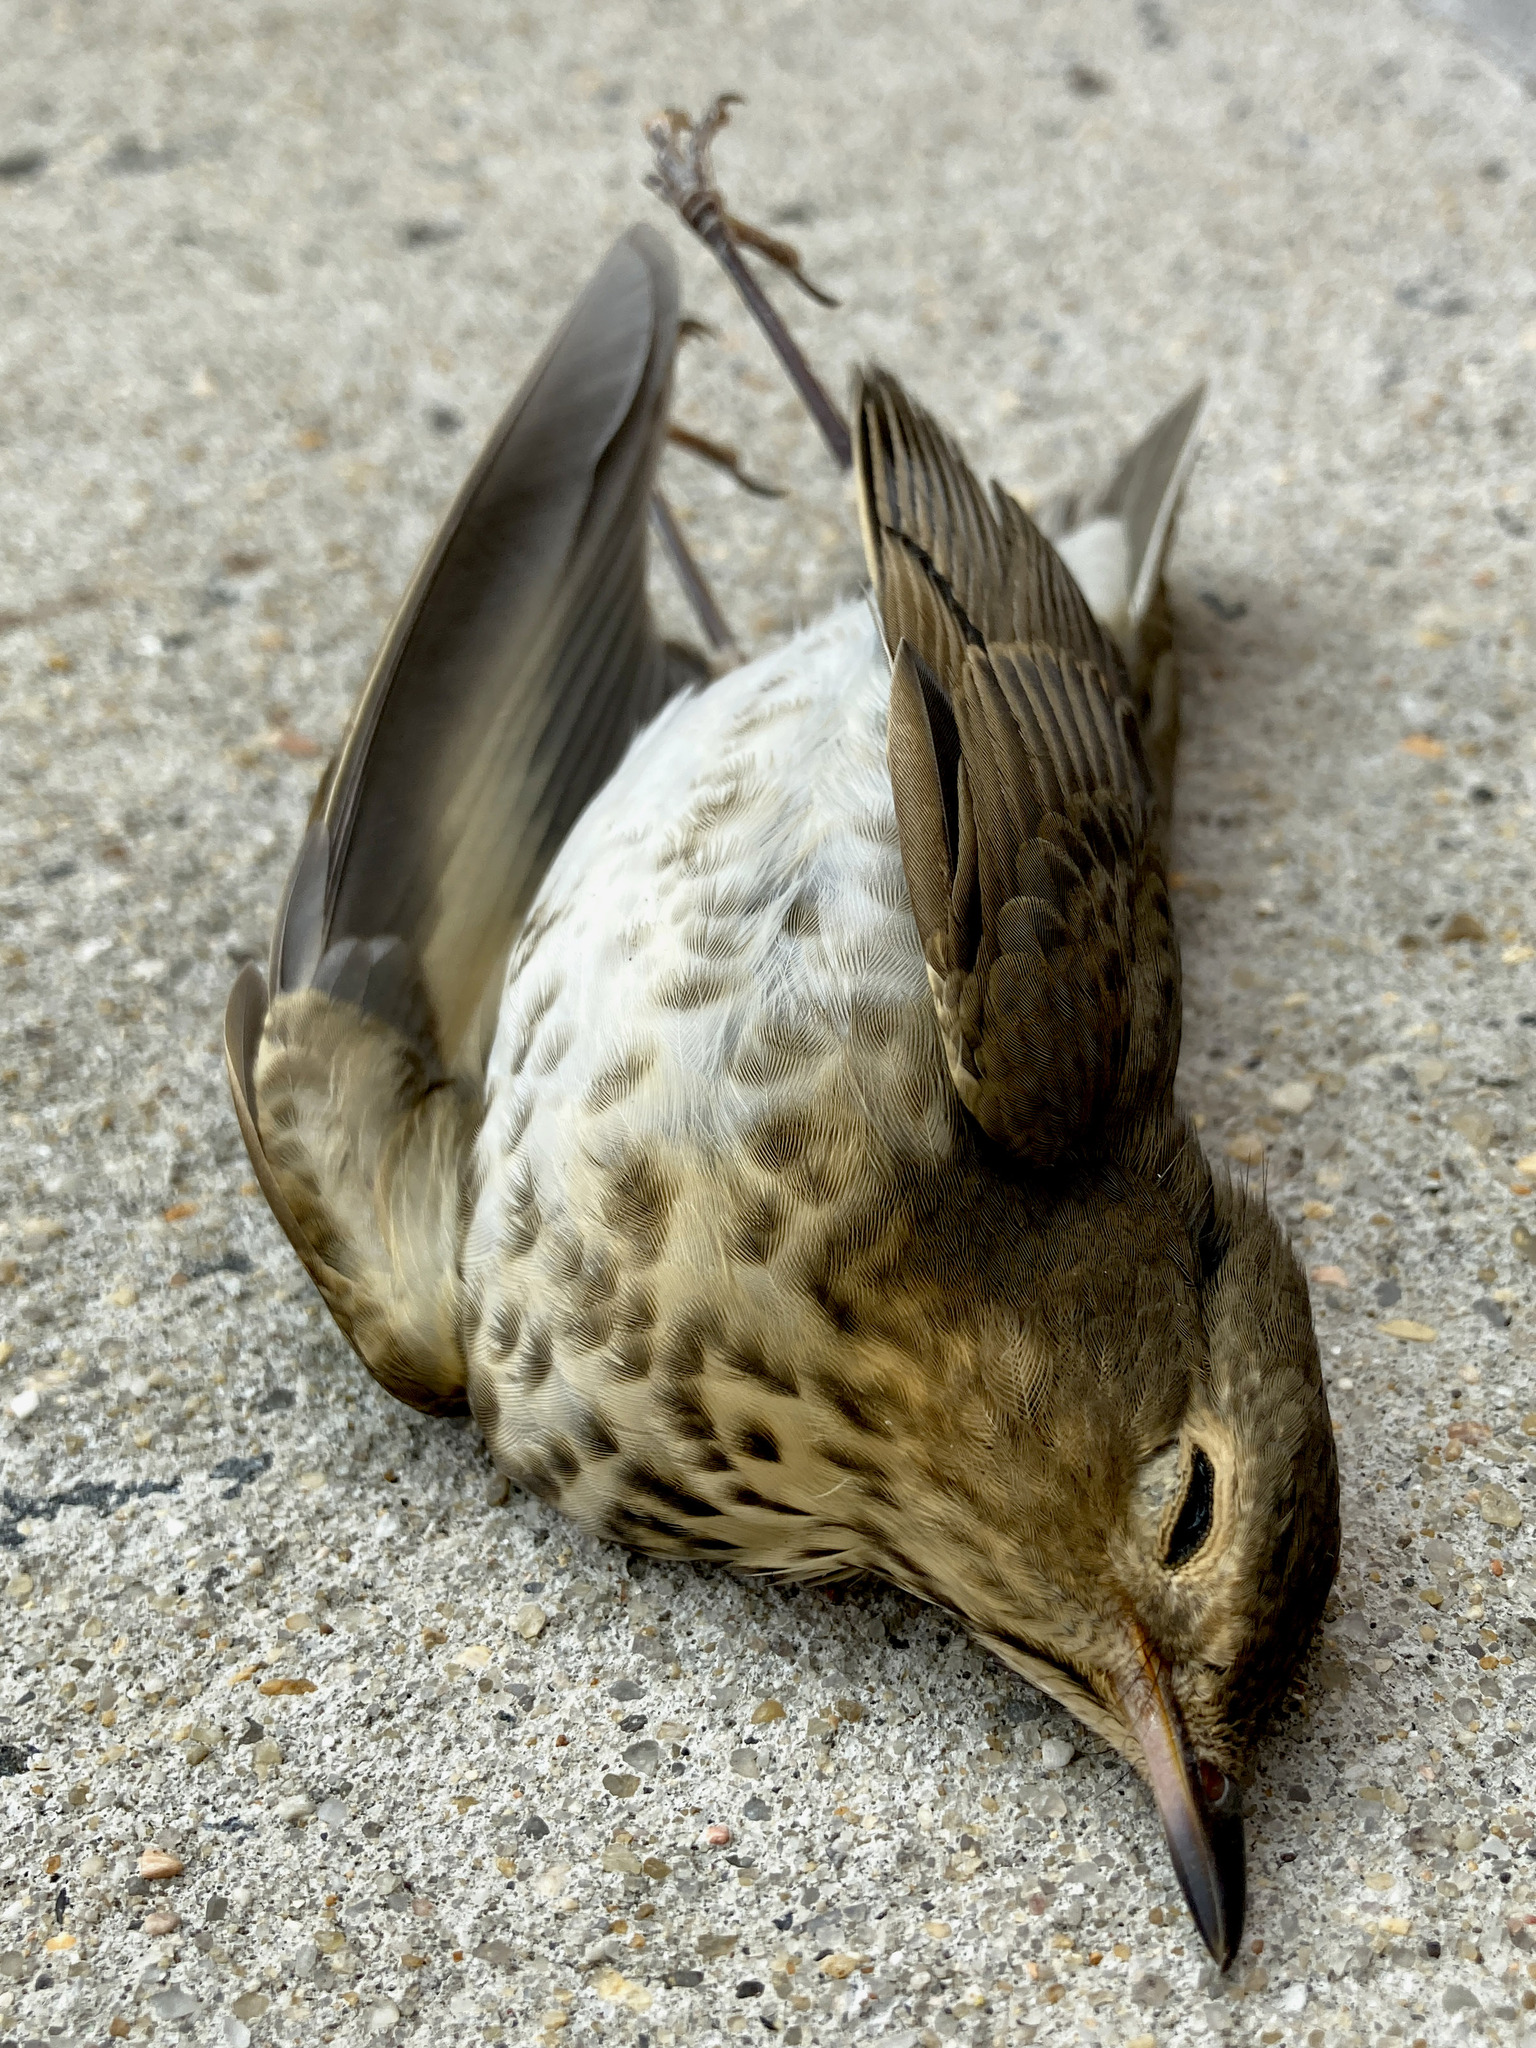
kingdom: Animalia
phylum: Chordata
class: Aves
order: Passeriformes
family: Turdidae
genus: Catharus
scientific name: Catharus ustulatus
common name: Swainson's thrush
